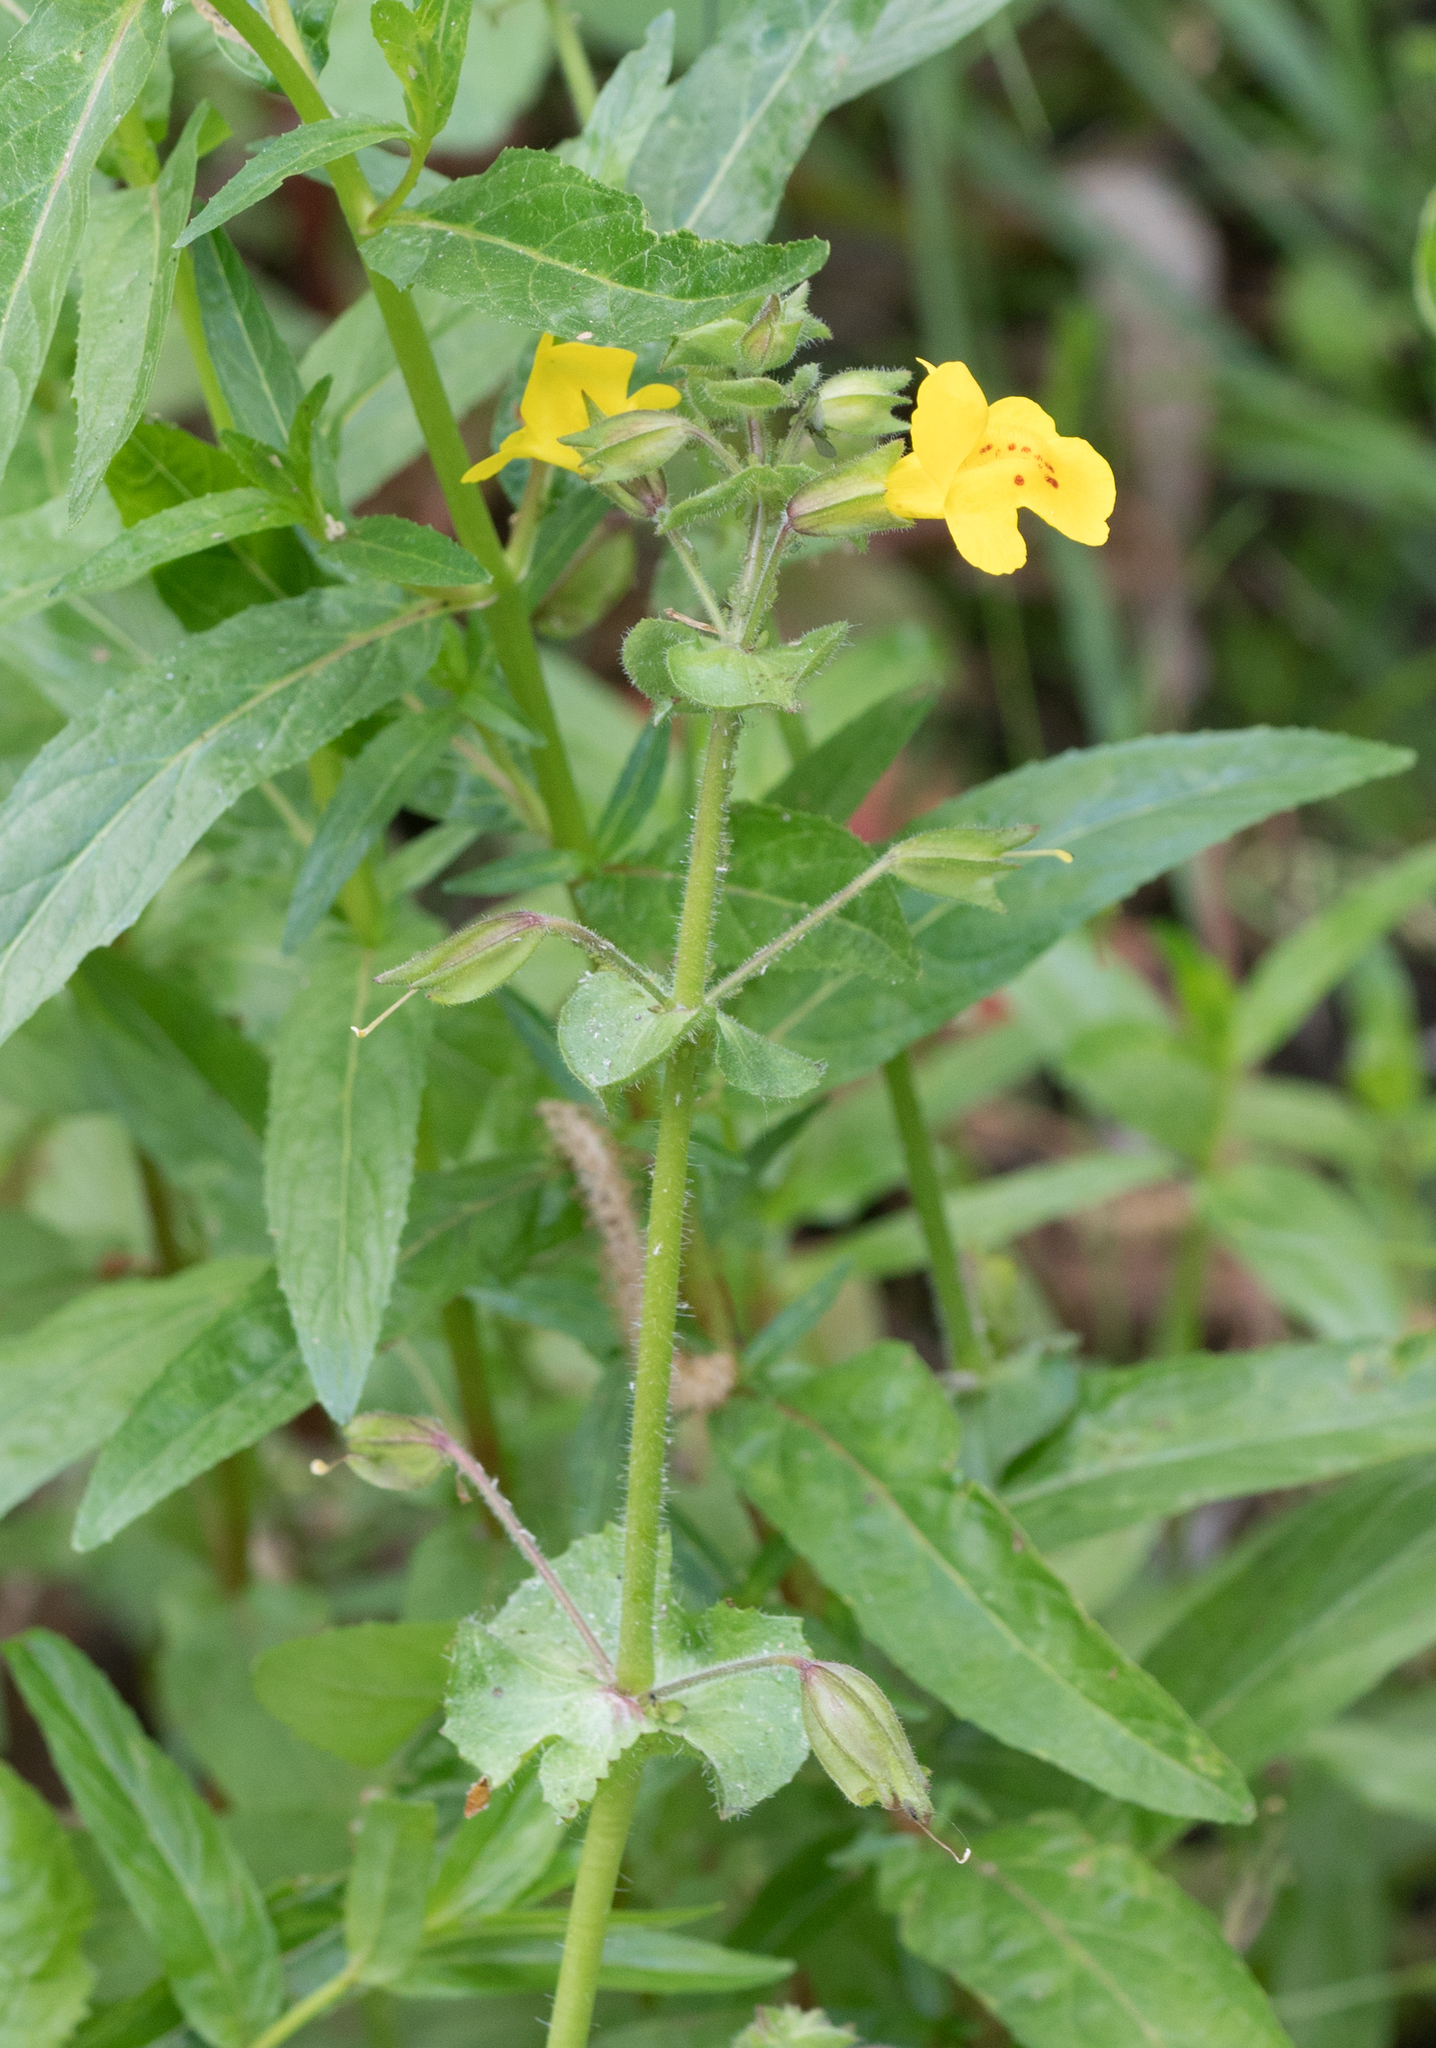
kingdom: Plantae
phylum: Tracheophyta
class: Magnoliopsida
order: Lamiales
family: Phrymaceae
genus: Erythranthe
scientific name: Erythranthe guttata
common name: Monkeyflower
